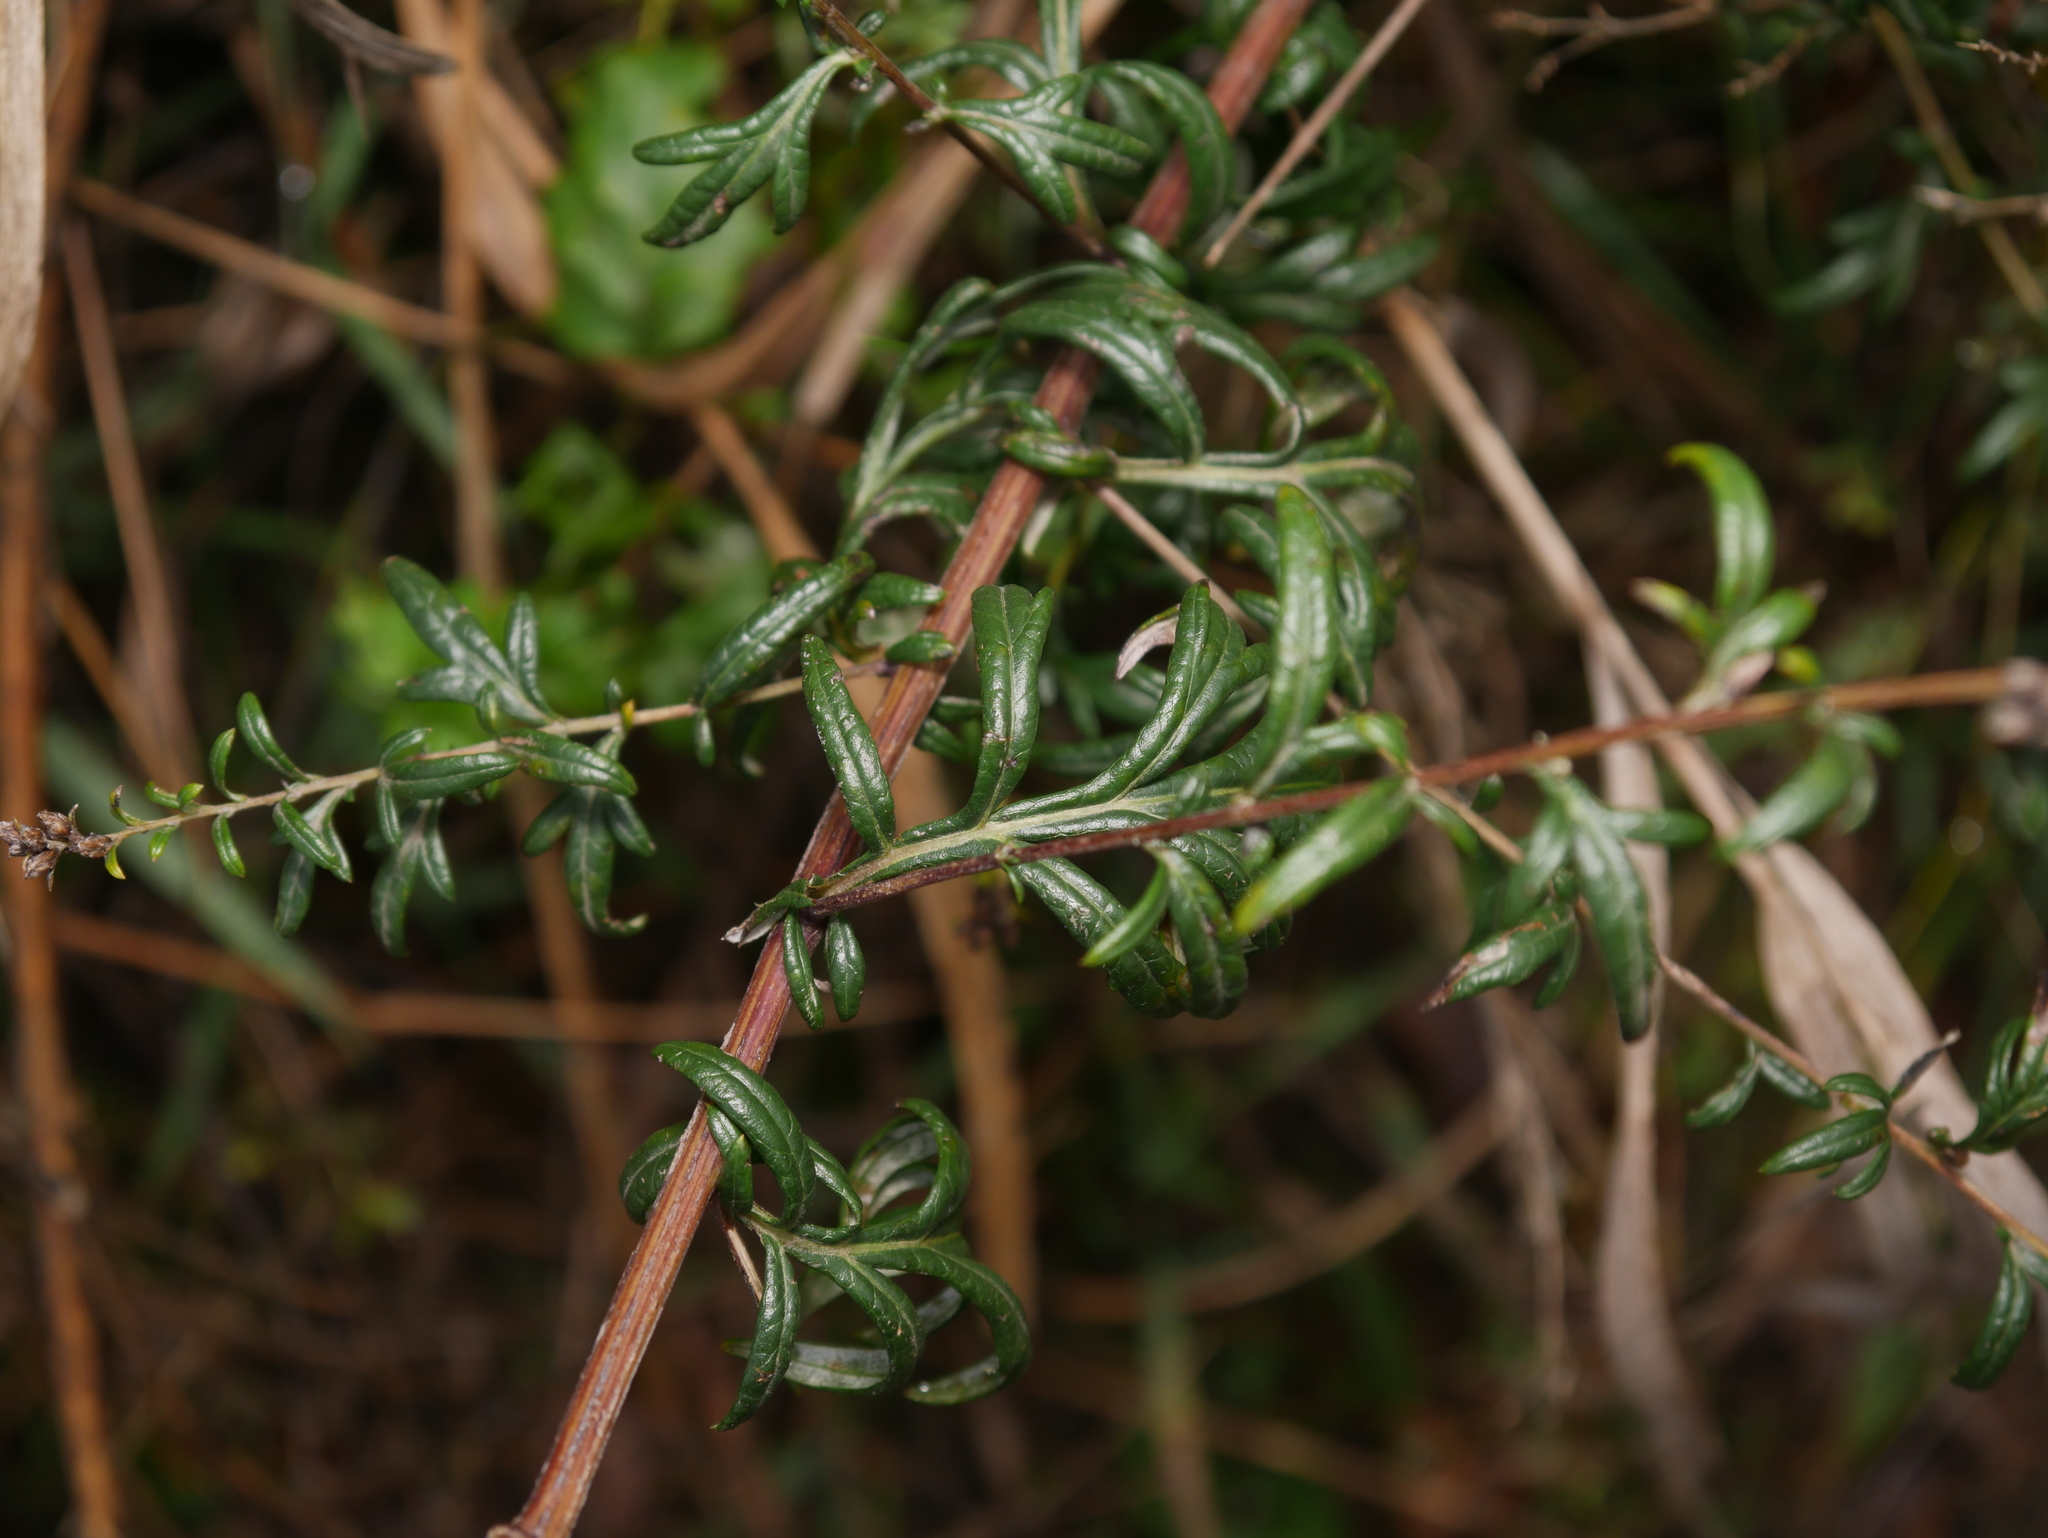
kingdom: Plantae
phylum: Tracheophyta
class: Magnoliopsida
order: Asterales
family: Asteraceae
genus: Artemisia
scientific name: Artemisia vulgaris
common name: Mugwort
